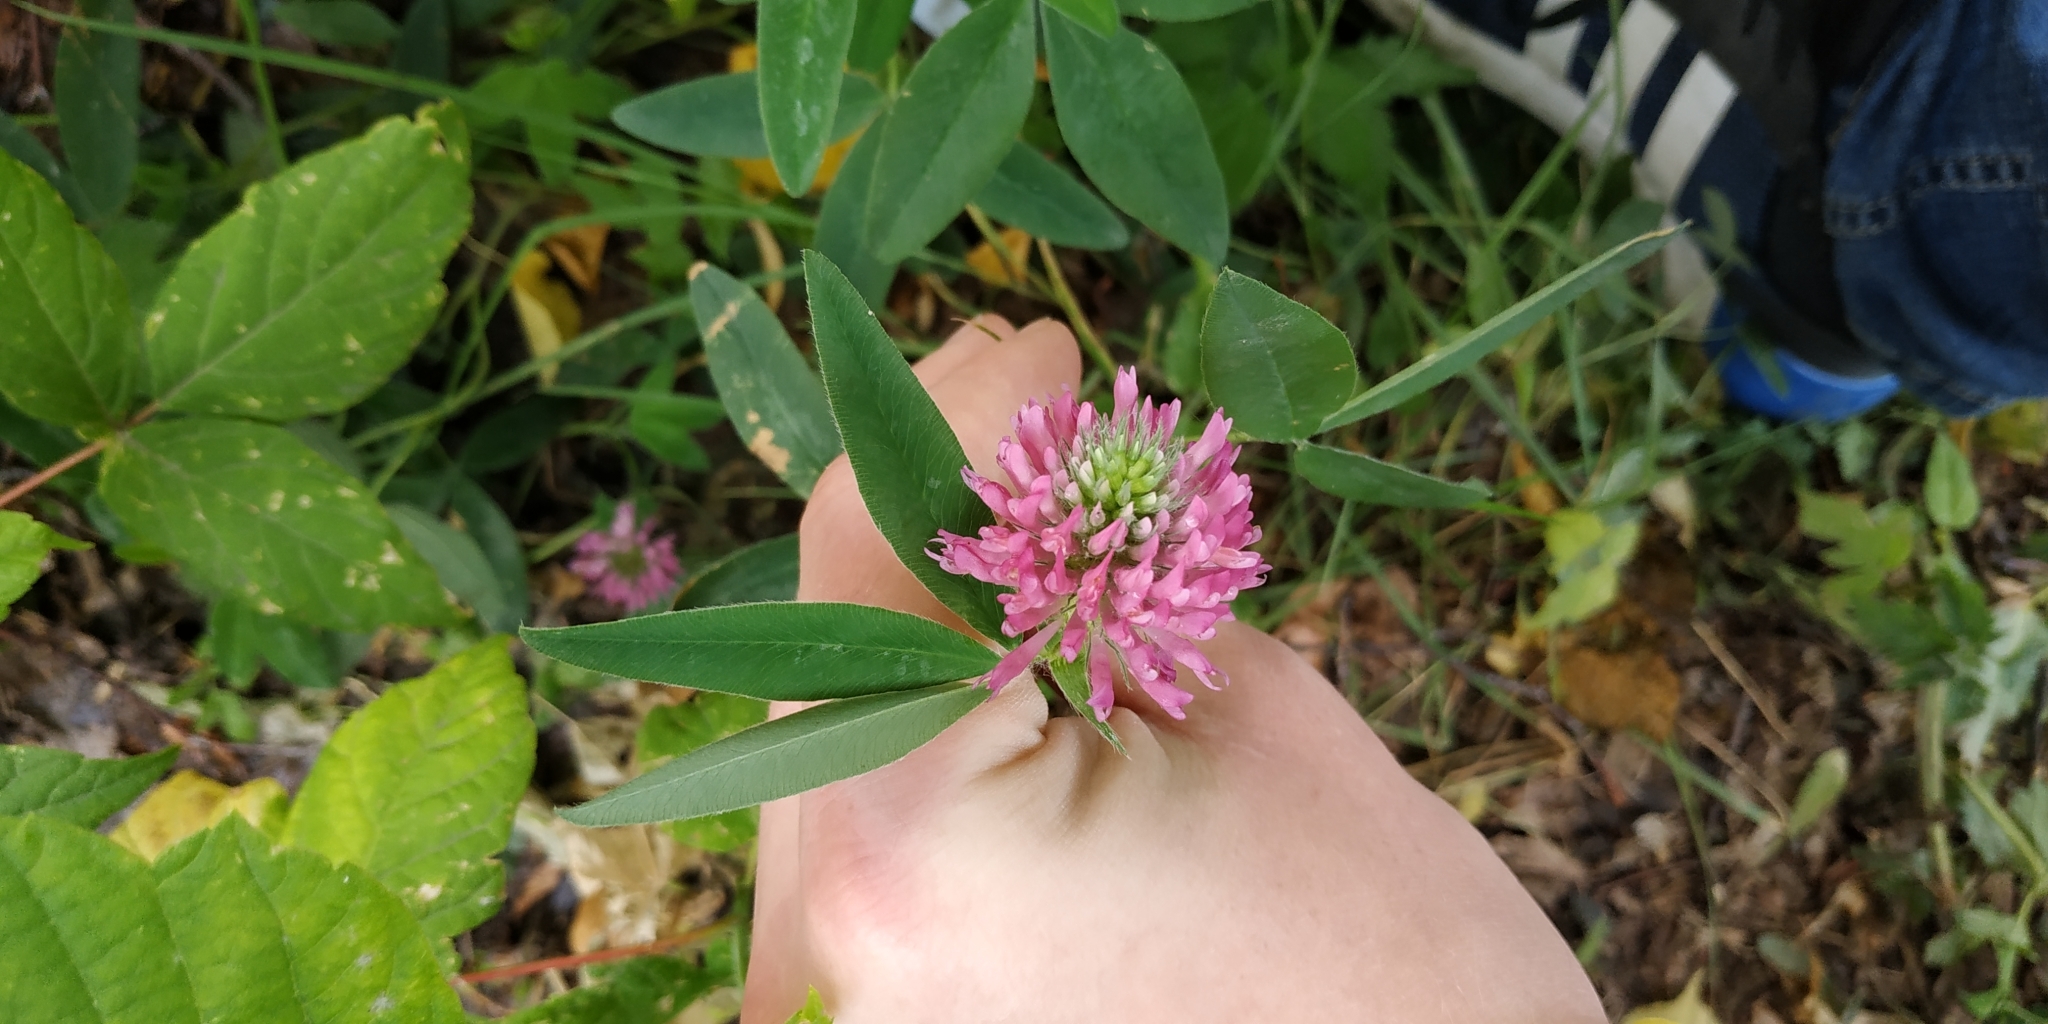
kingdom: Plantae
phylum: Tracheophyta
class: Magnoliopsida
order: Fabales
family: Fabaceae
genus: Trifolium
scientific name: Trifolium medium
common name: Zigzag clover
